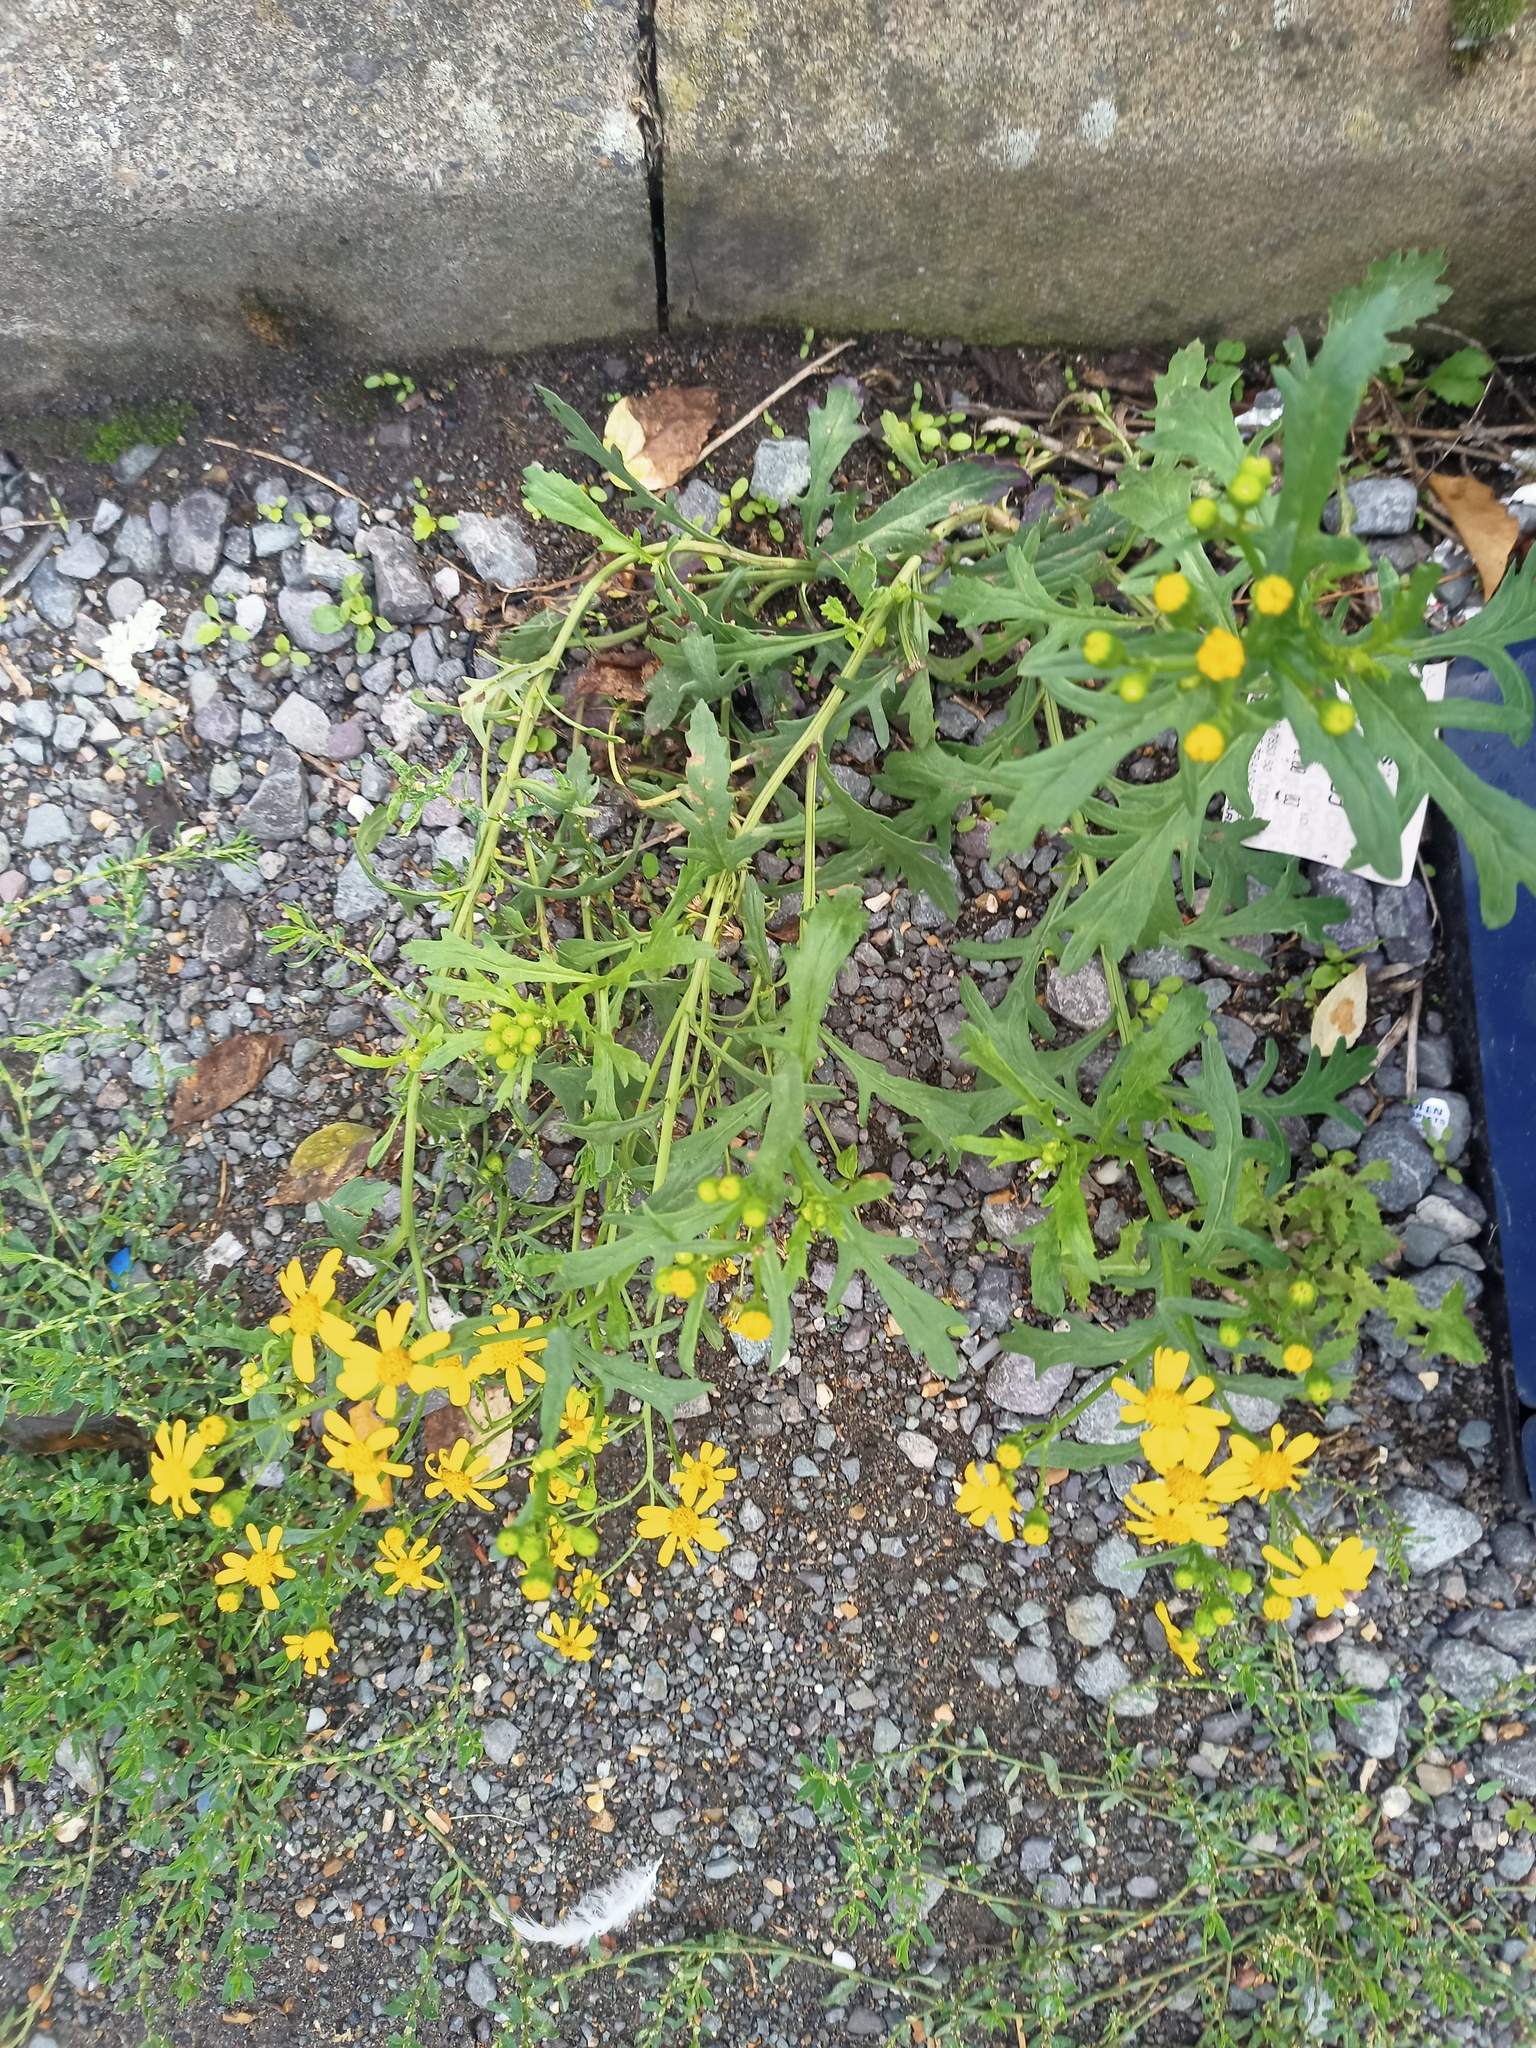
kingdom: Plantae
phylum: Tracheophyta
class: Magnoliopsida
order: Asterales
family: Asteraceae
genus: Senecio
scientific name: Senecio squalidus
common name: Oxford ragwort
